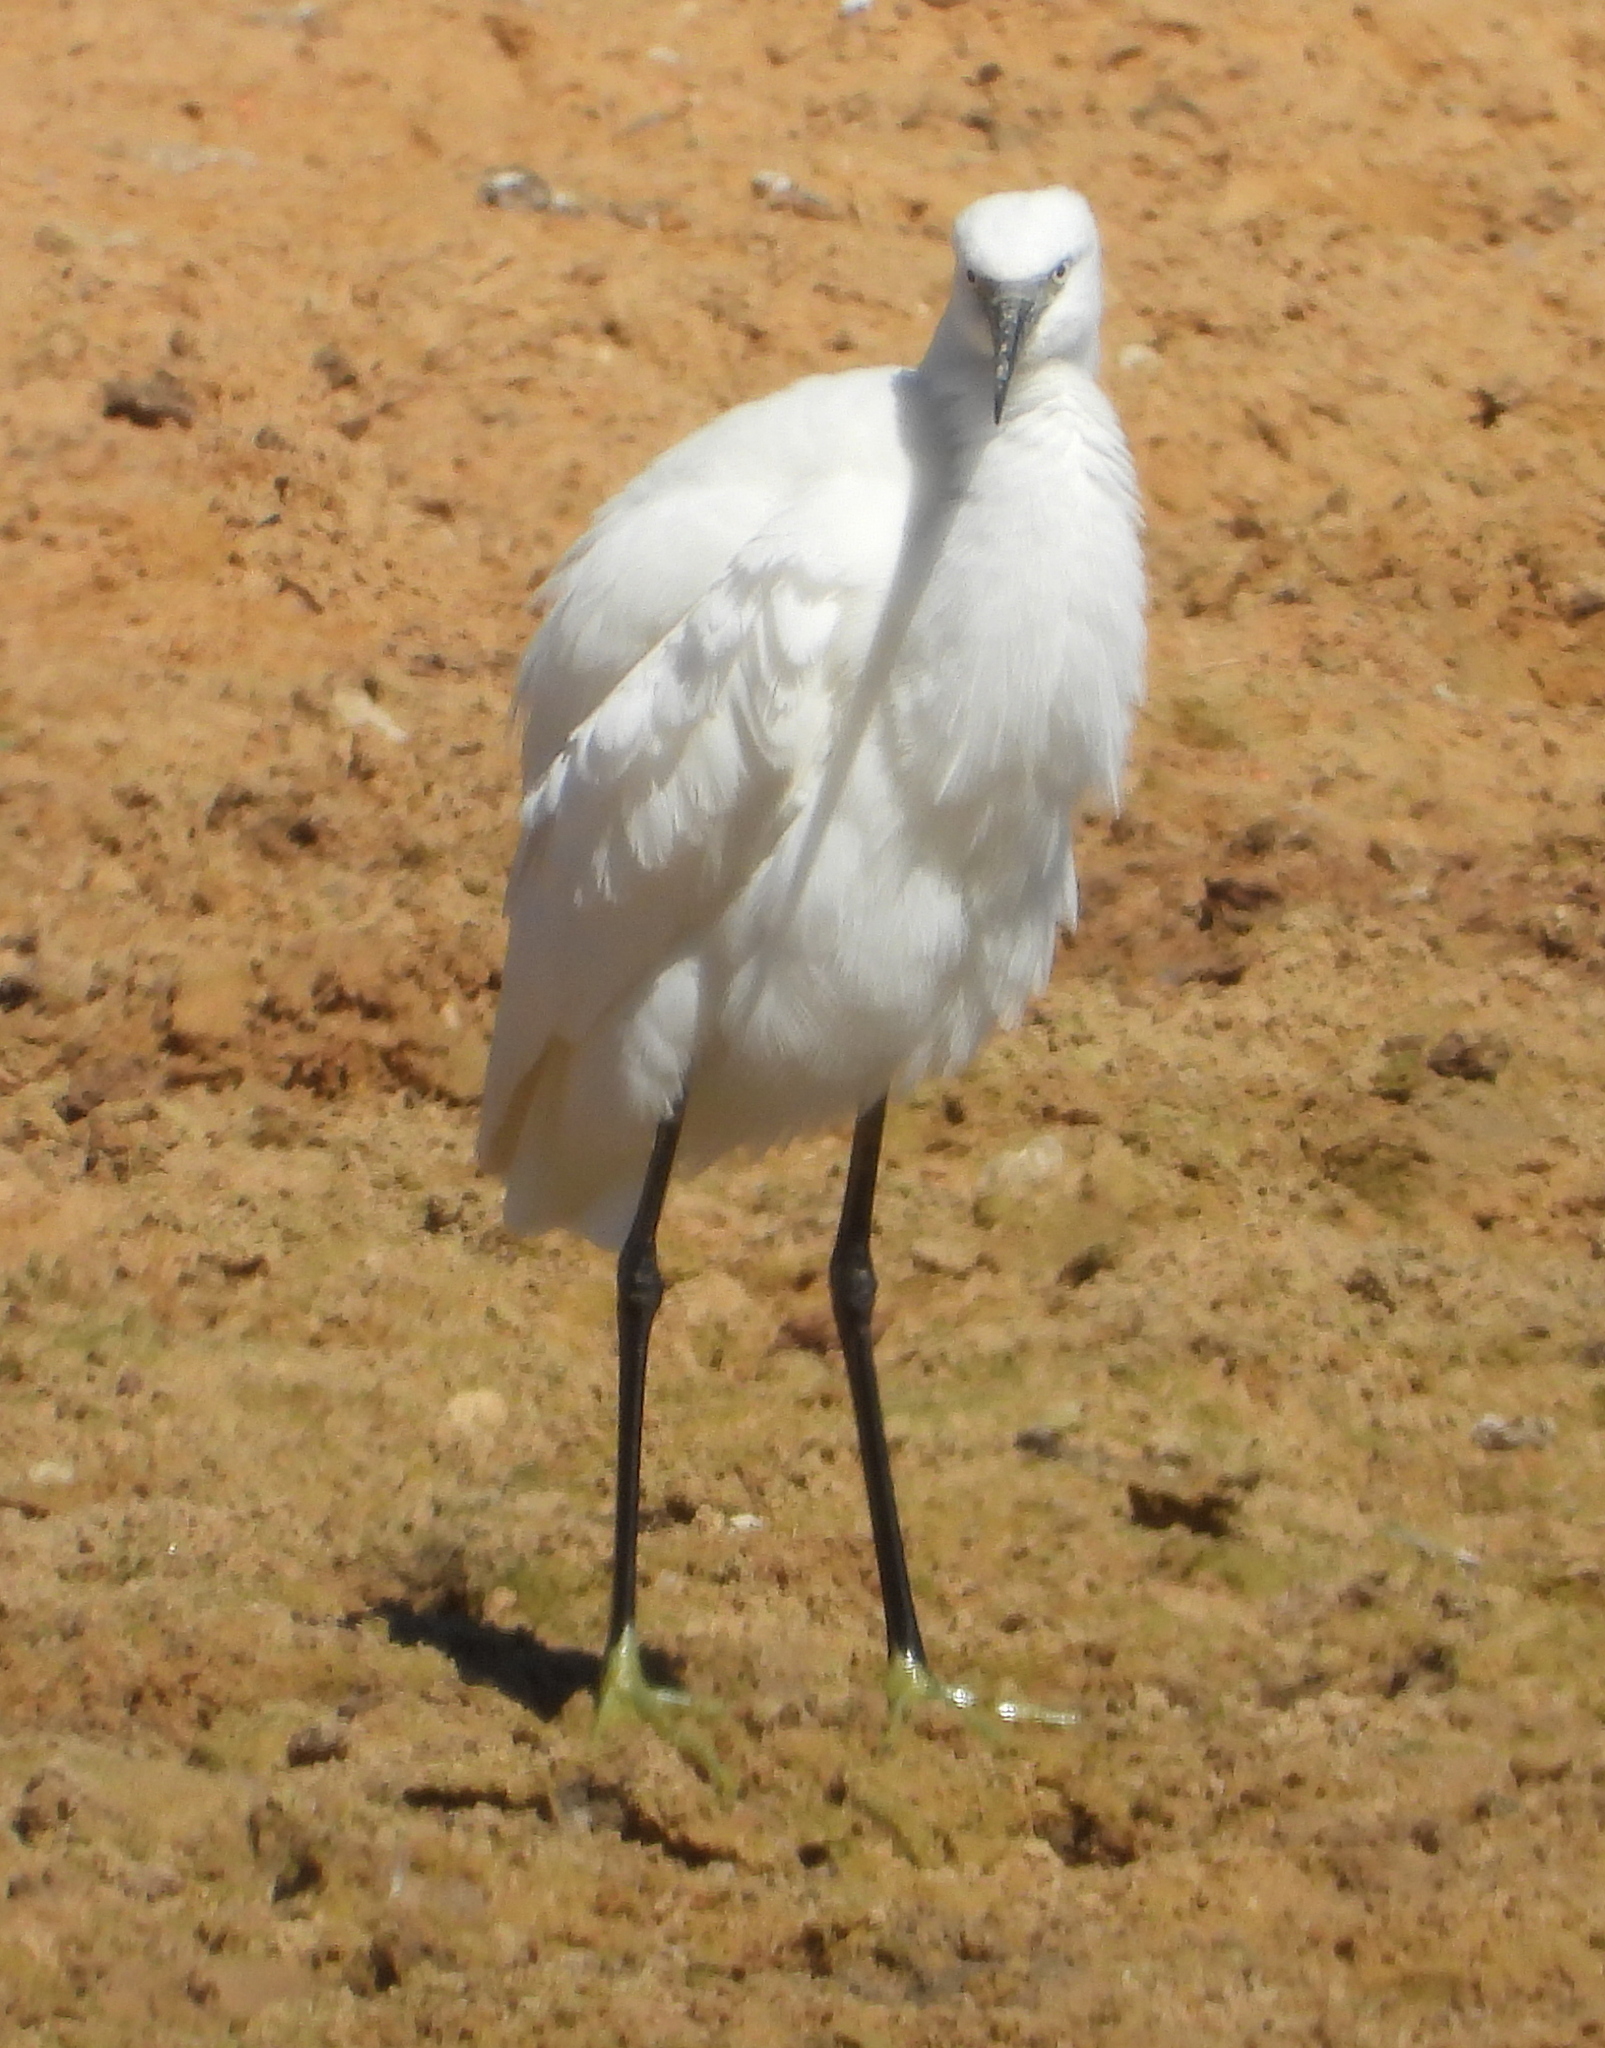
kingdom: Animalia
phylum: Chordata
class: Aves
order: Pelecaniformes
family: Ardeidae
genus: Egretta
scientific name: Egretta garzetta
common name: Little egret
